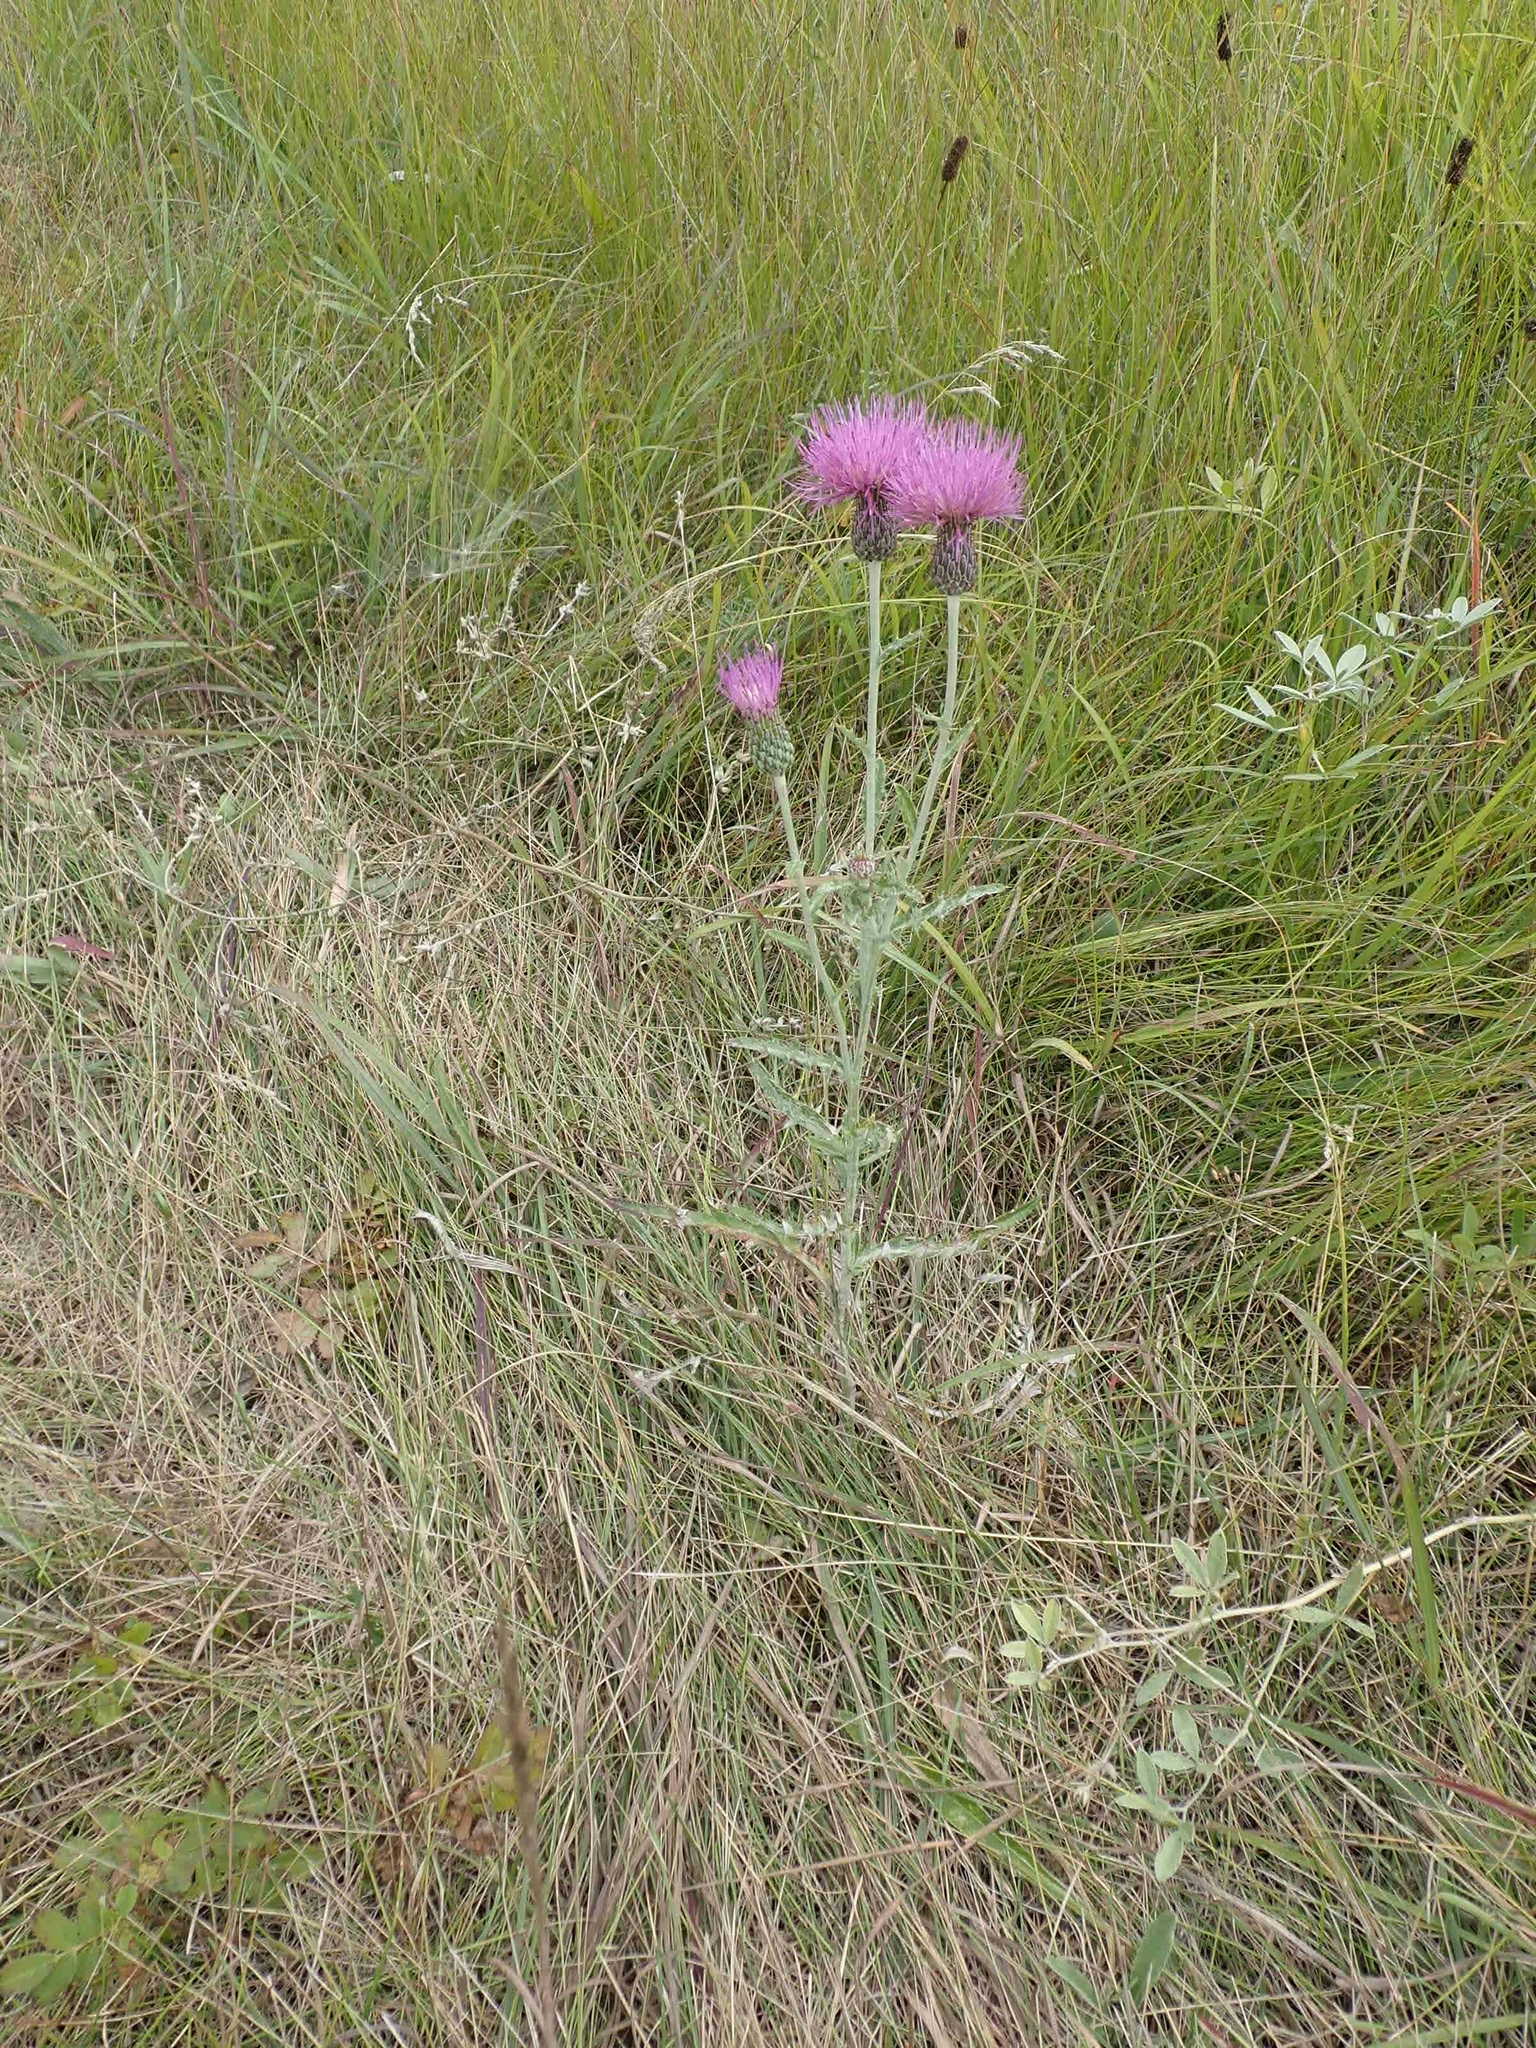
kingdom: Plantae
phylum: Tracheophyta
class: Magnoliopsida
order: Asterales
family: Asteraceae
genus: Cirsium
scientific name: Cirsium flodmanii
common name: Flodman's thistle
